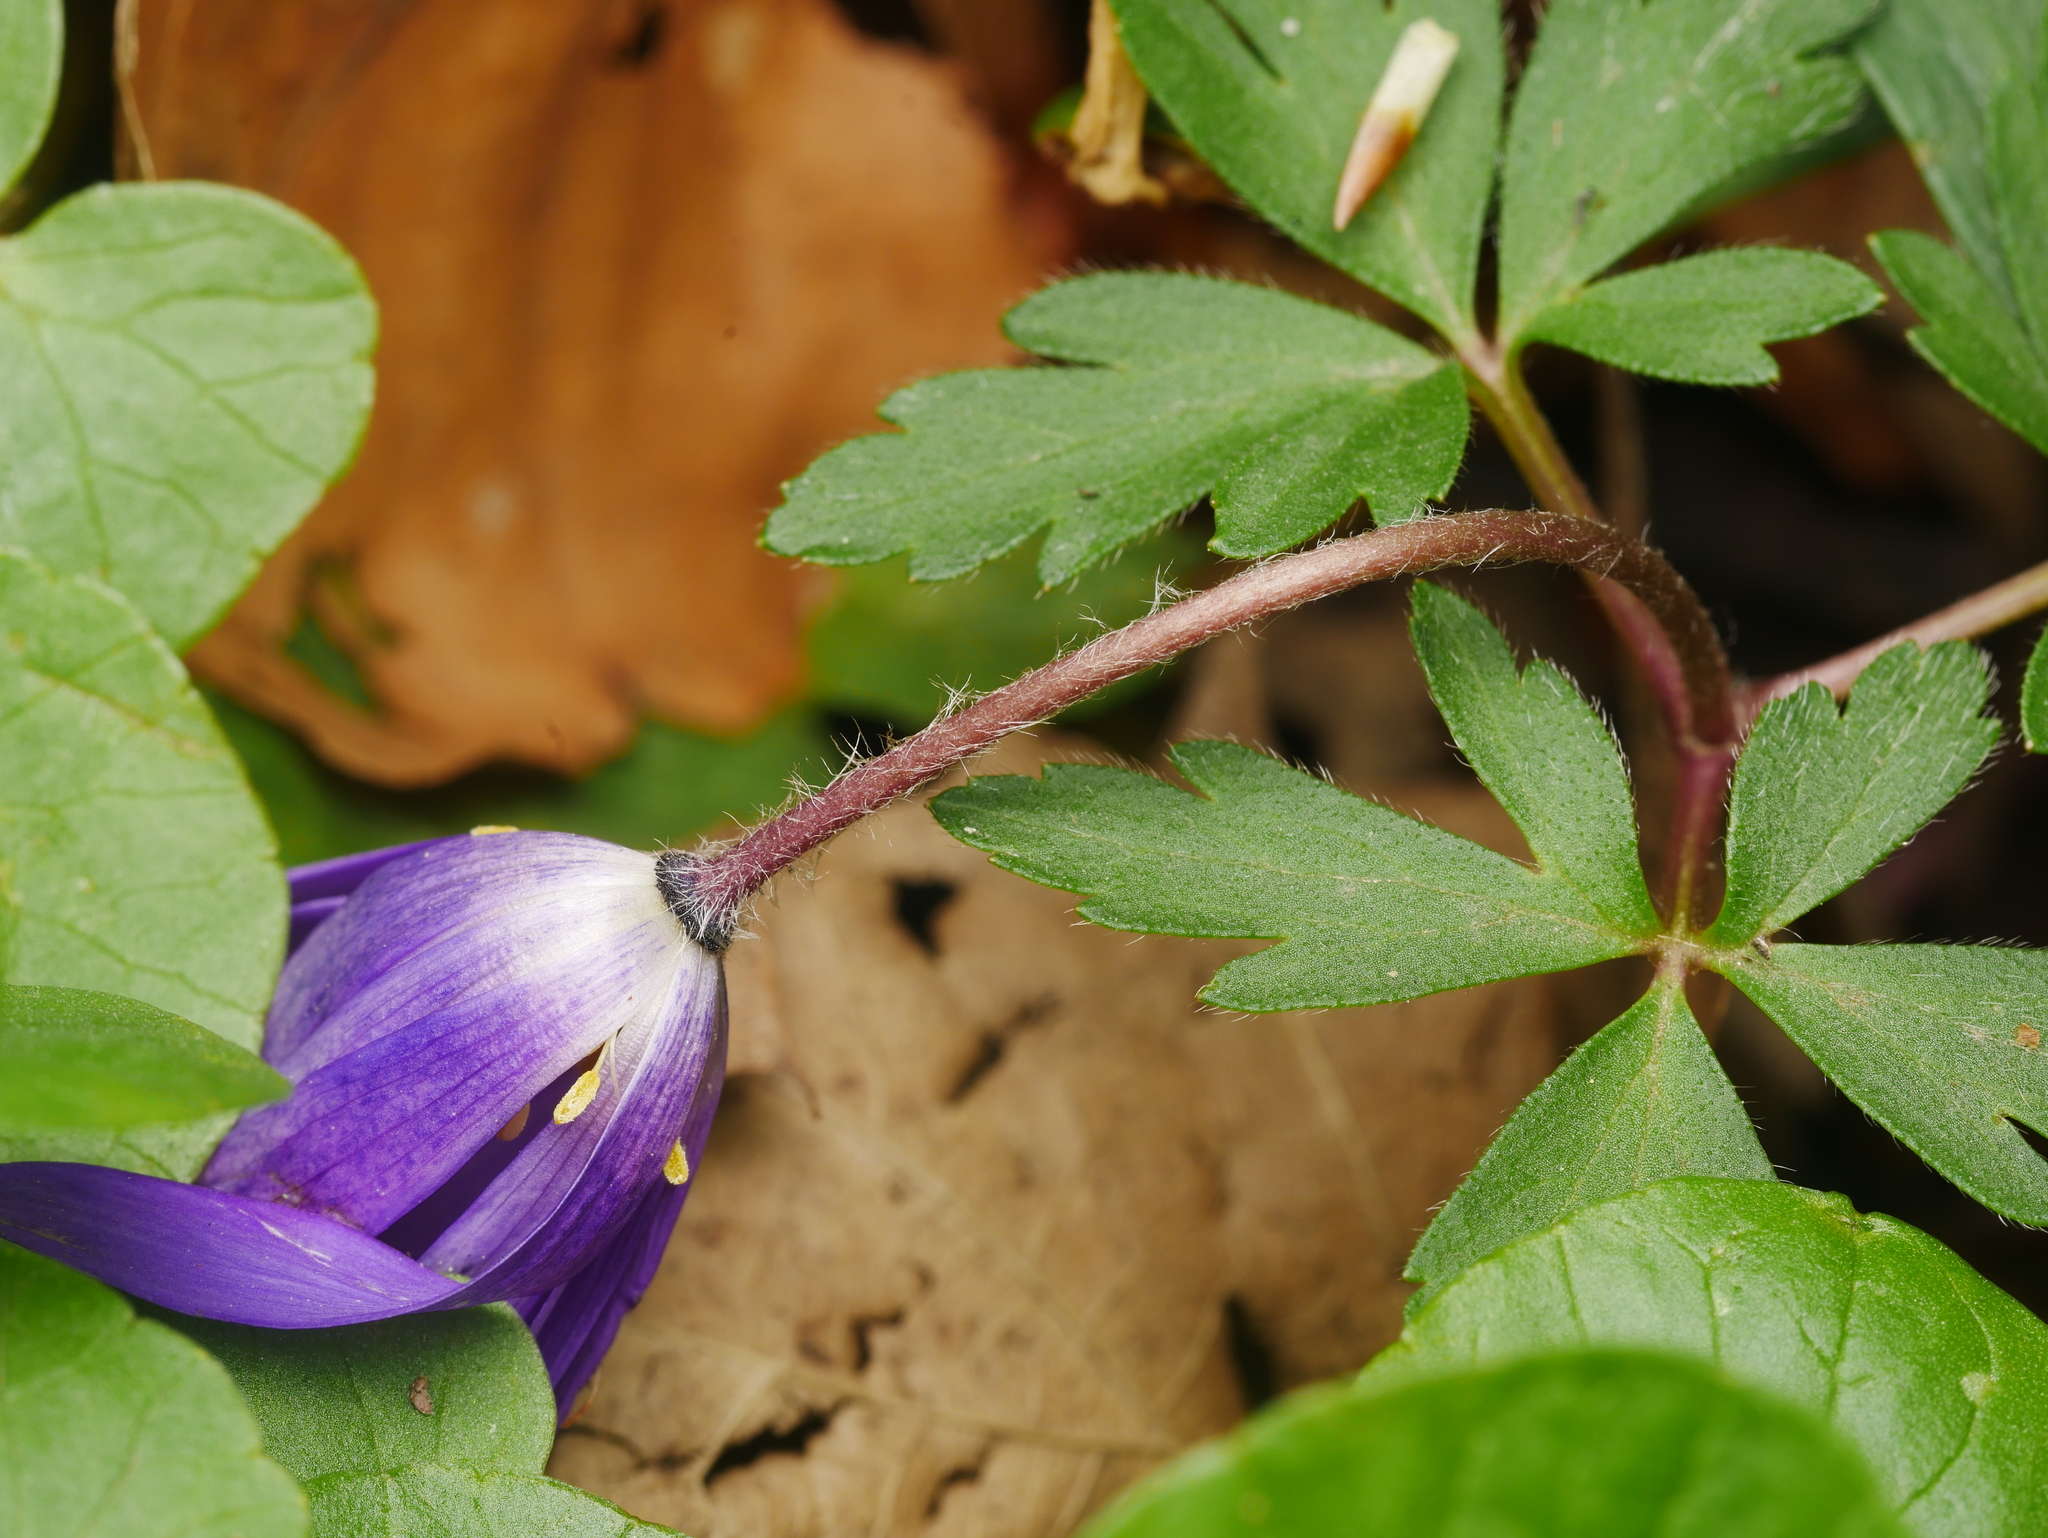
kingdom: Plantae
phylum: Tracheophyta
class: Magnoliopsida
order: Ranunculales
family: Ranunculaceae
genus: Anemone
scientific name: Anemone blanda
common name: Balkan anemone
